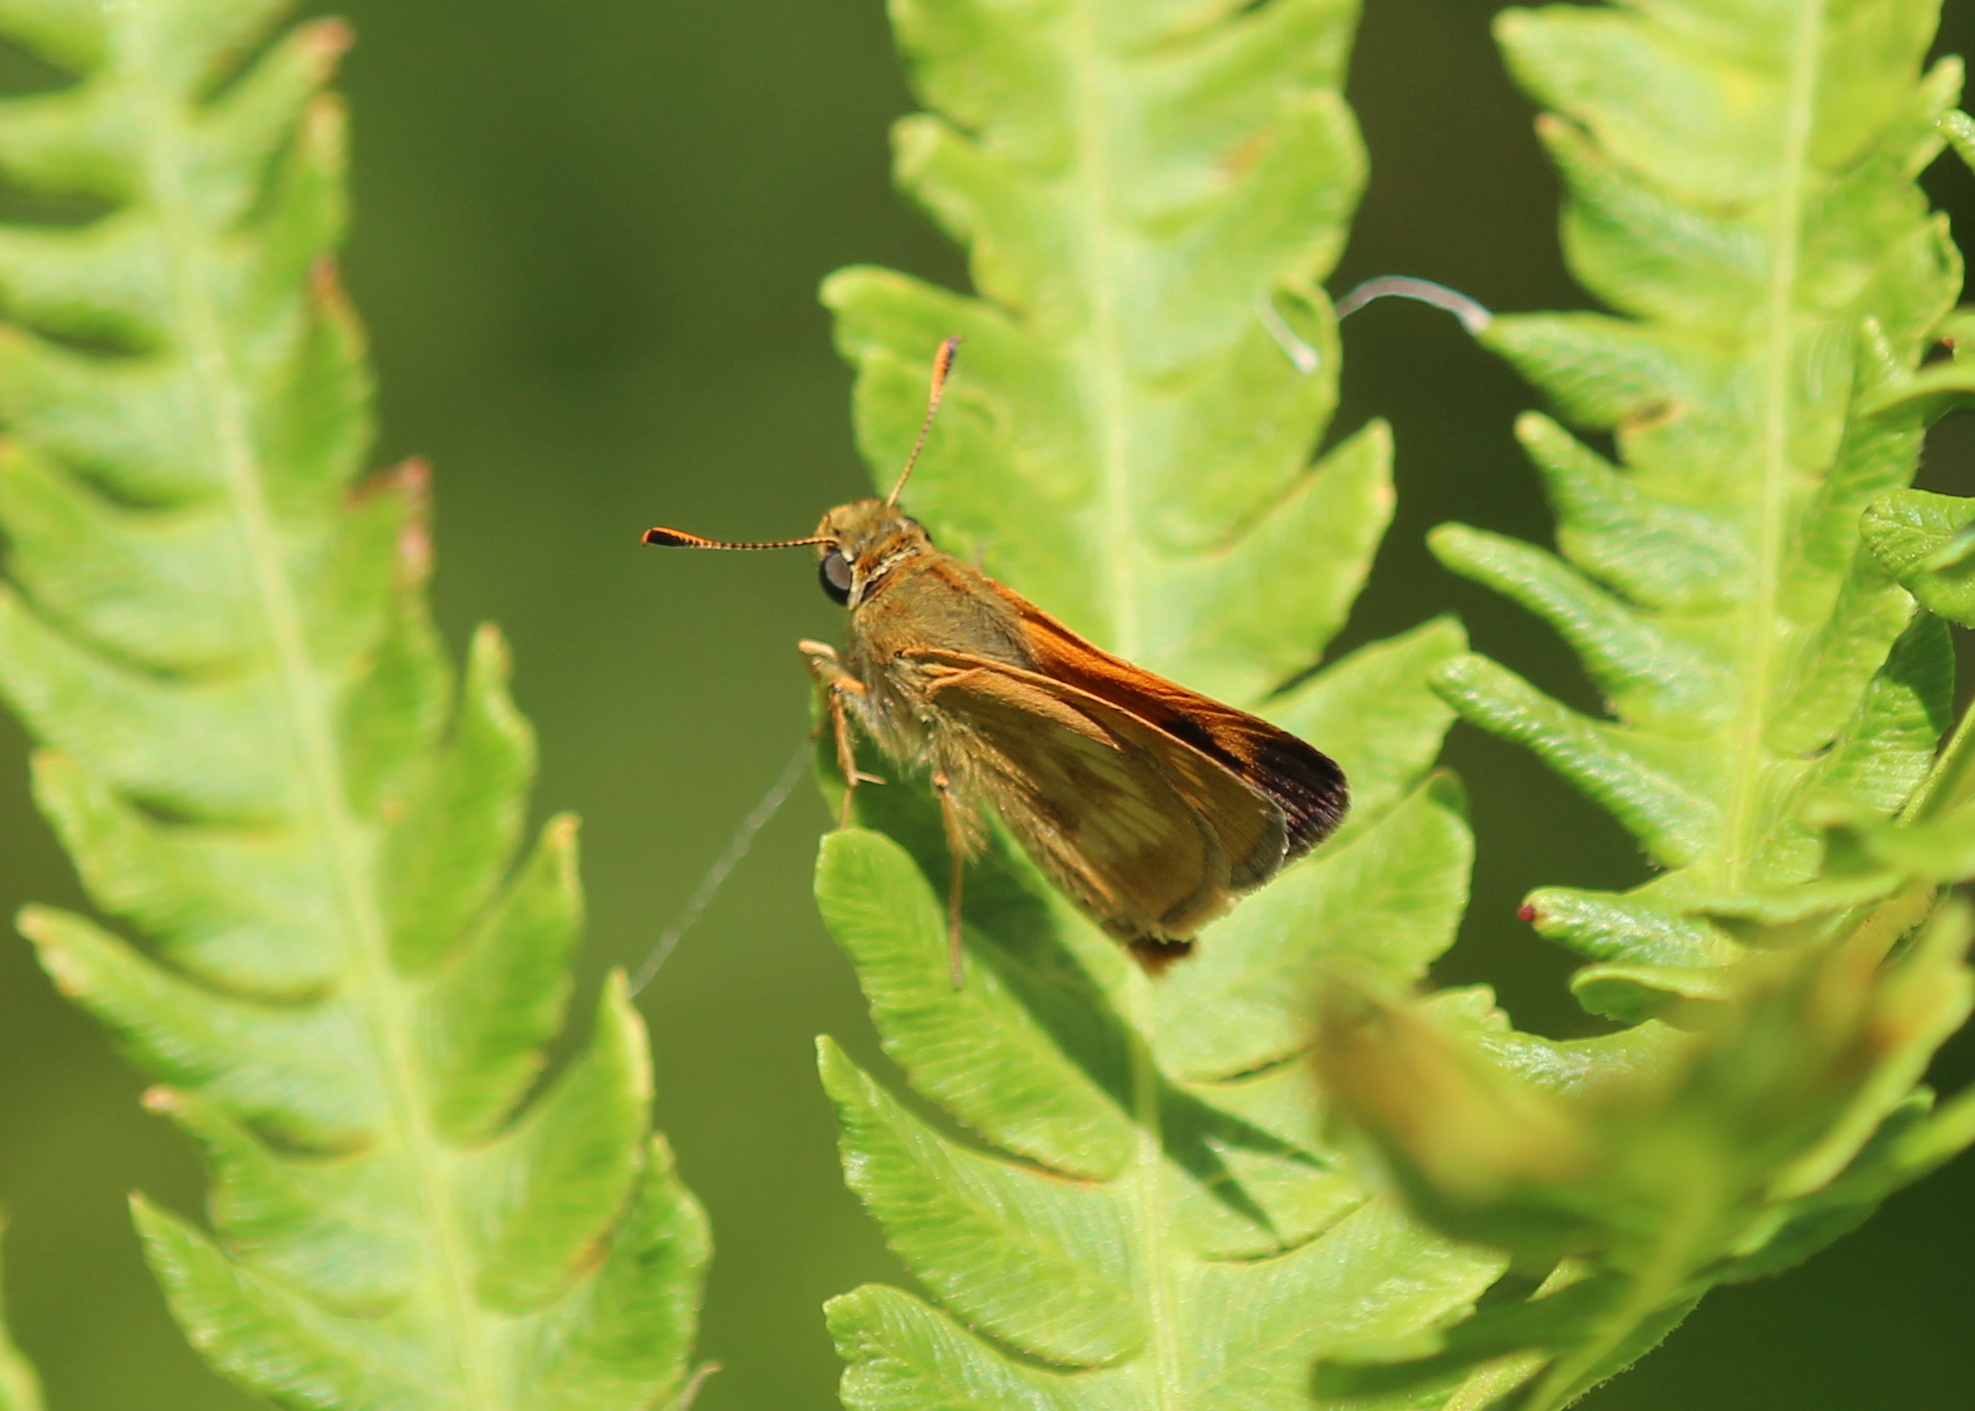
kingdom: Animalia
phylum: Arthropoda
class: Insecta
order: Lepidoptera
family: Hesperiidae
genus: Polites
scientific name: Polites mystic
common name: Long dash
